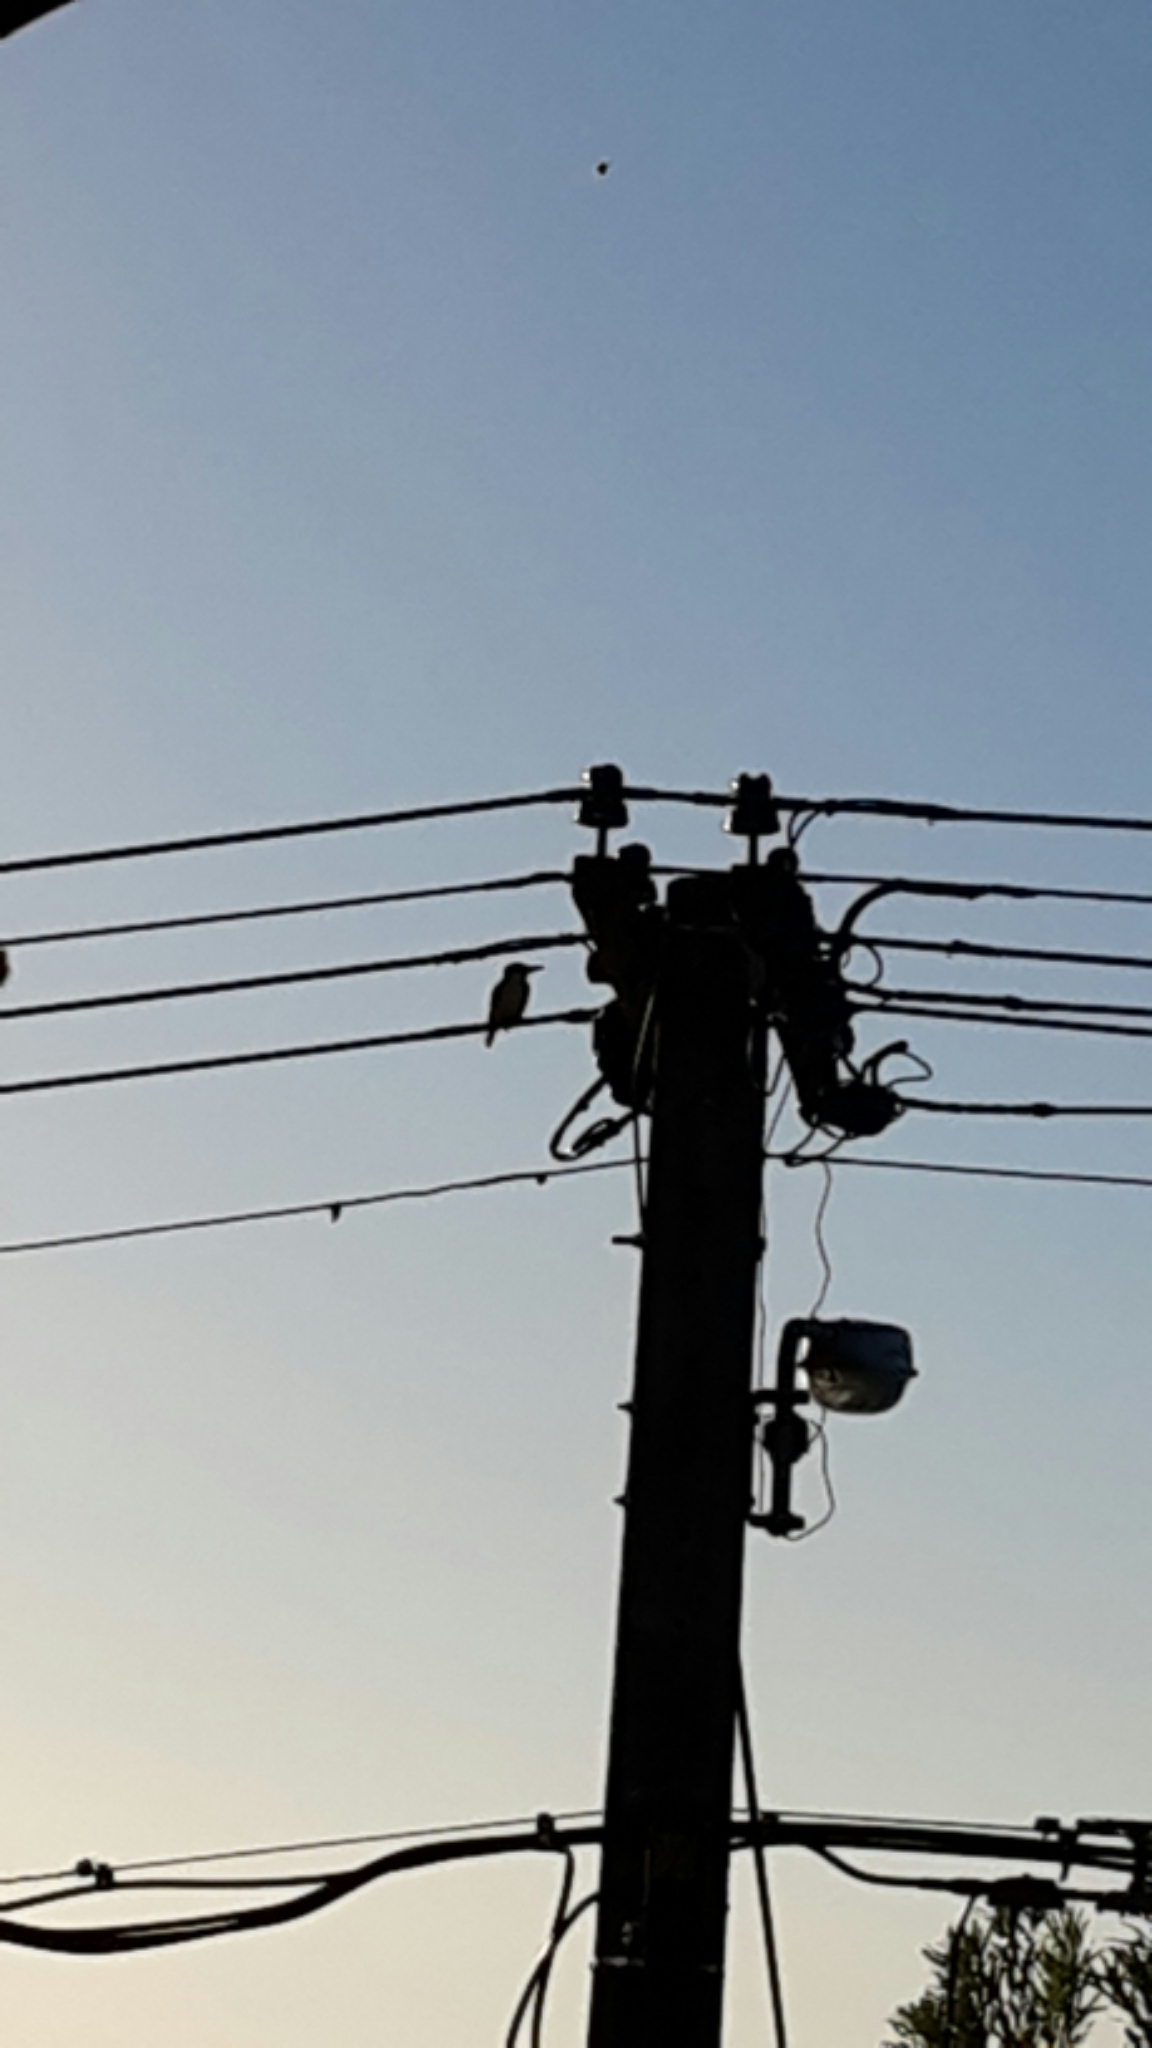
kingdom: Animalia
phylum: Chordata
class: Aves
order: Coraciiformes
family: Alcedinidae
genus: Todiramphus
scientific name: Todiramphus sanctus
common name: Sacred kingfisher
